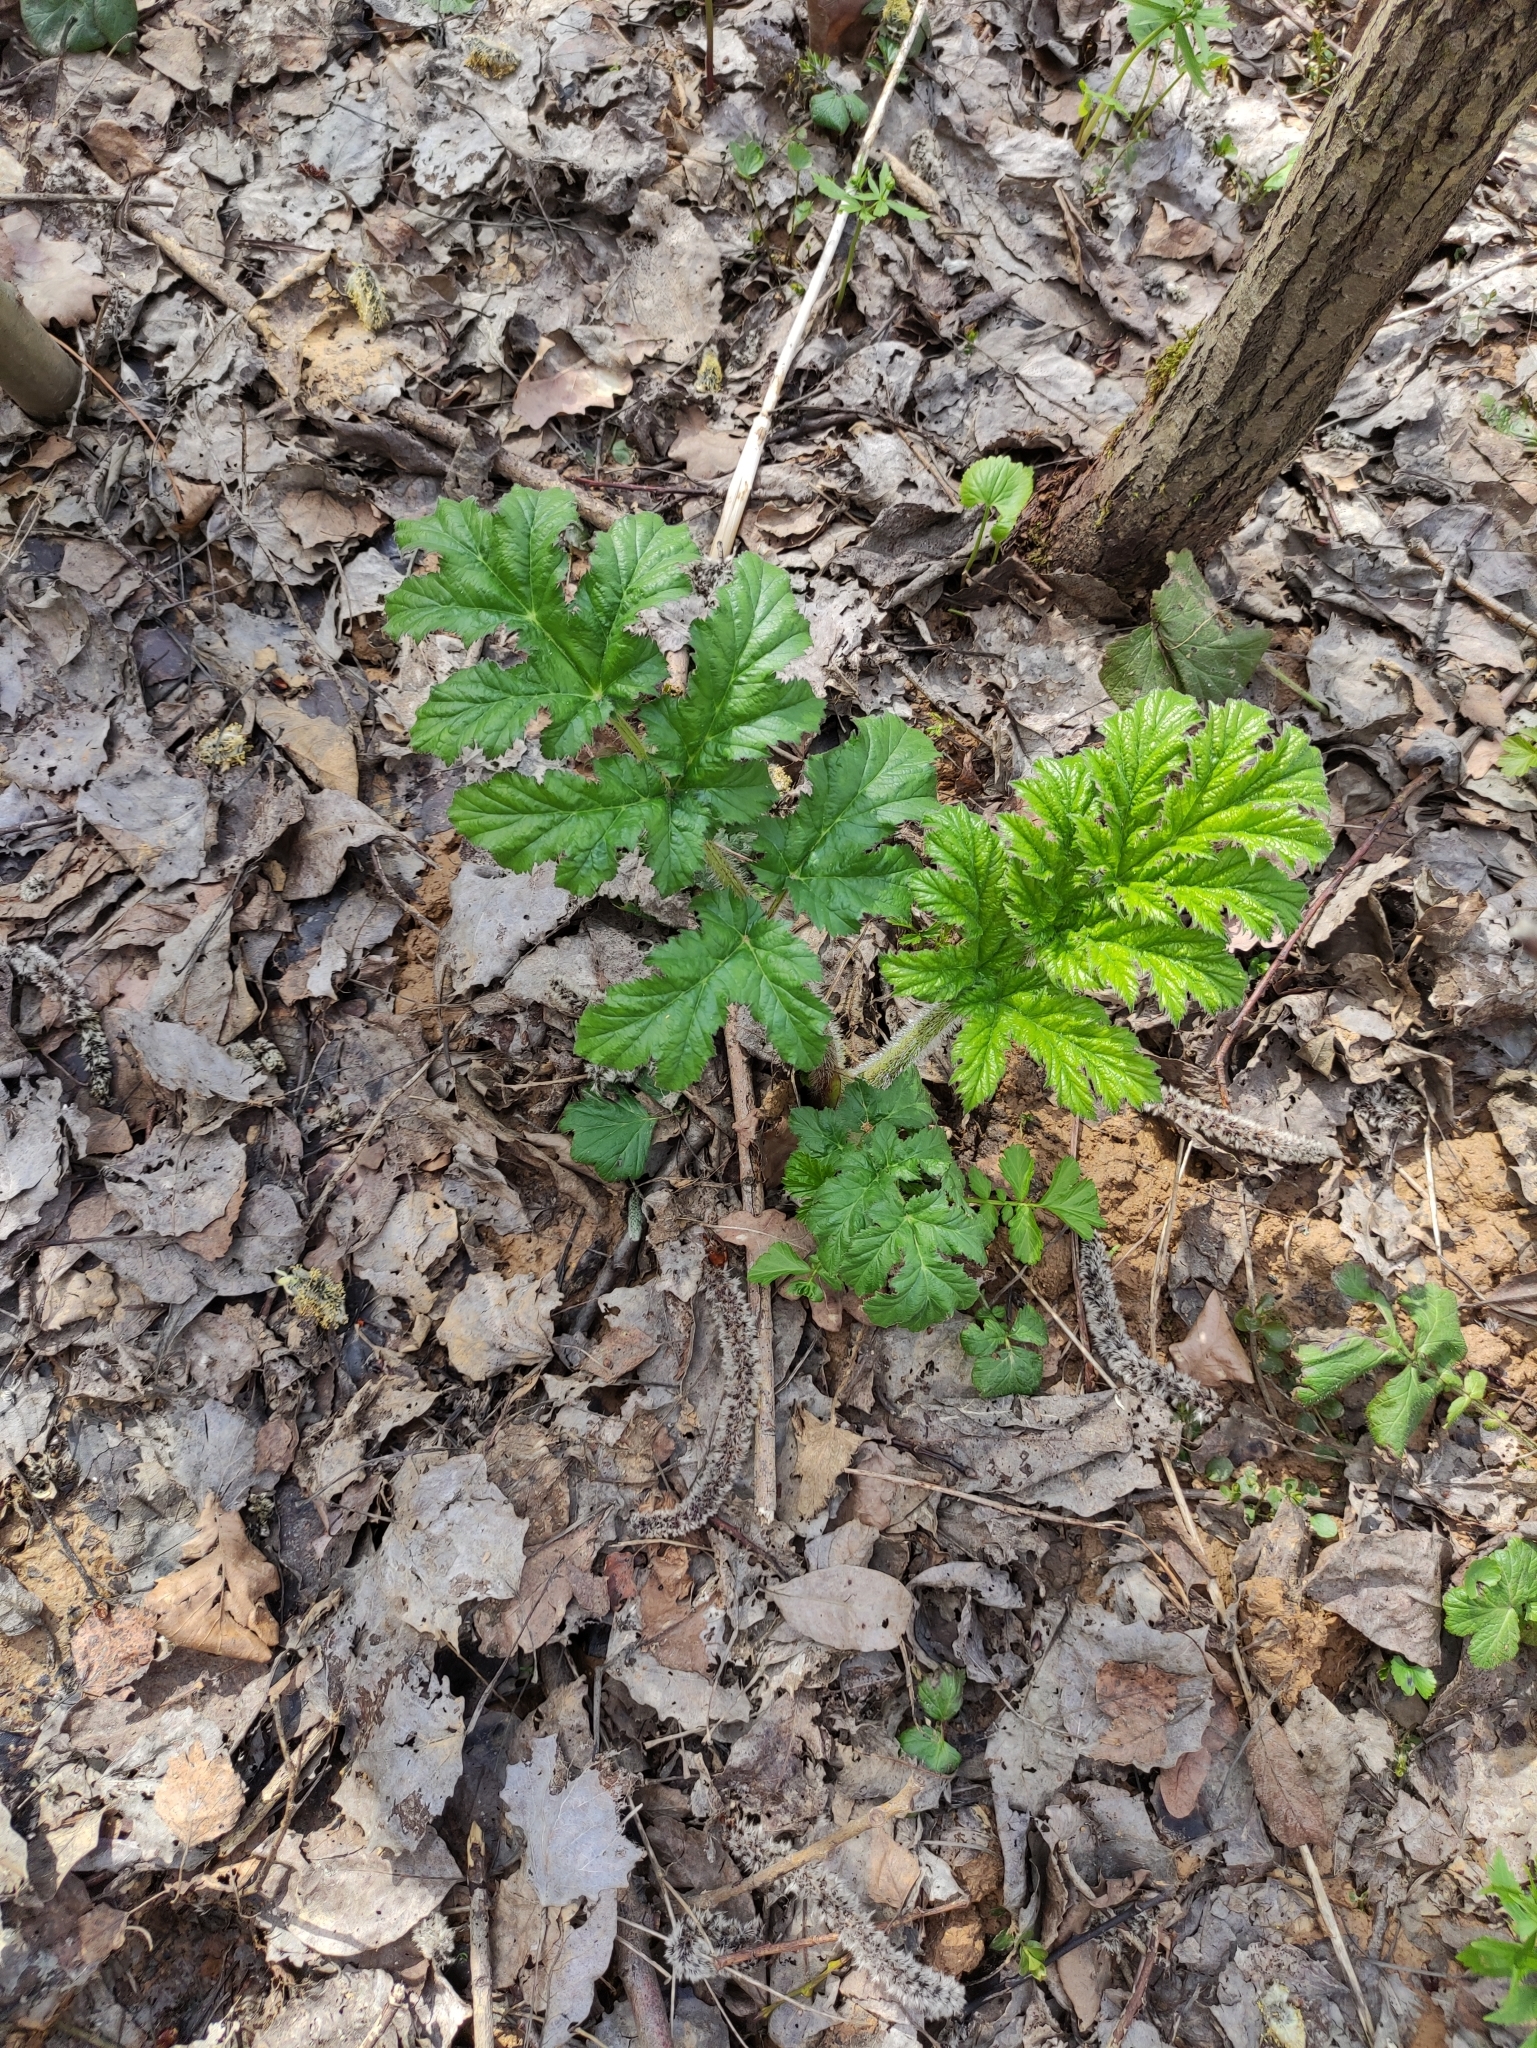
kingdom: Plantae
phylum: Tracheophyta
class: Magnoliopsida
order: Apiales
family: Apiaceae
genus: Heracleum
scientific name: Heracleum sosnowskyi
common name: Sosnowsky's hogweed
